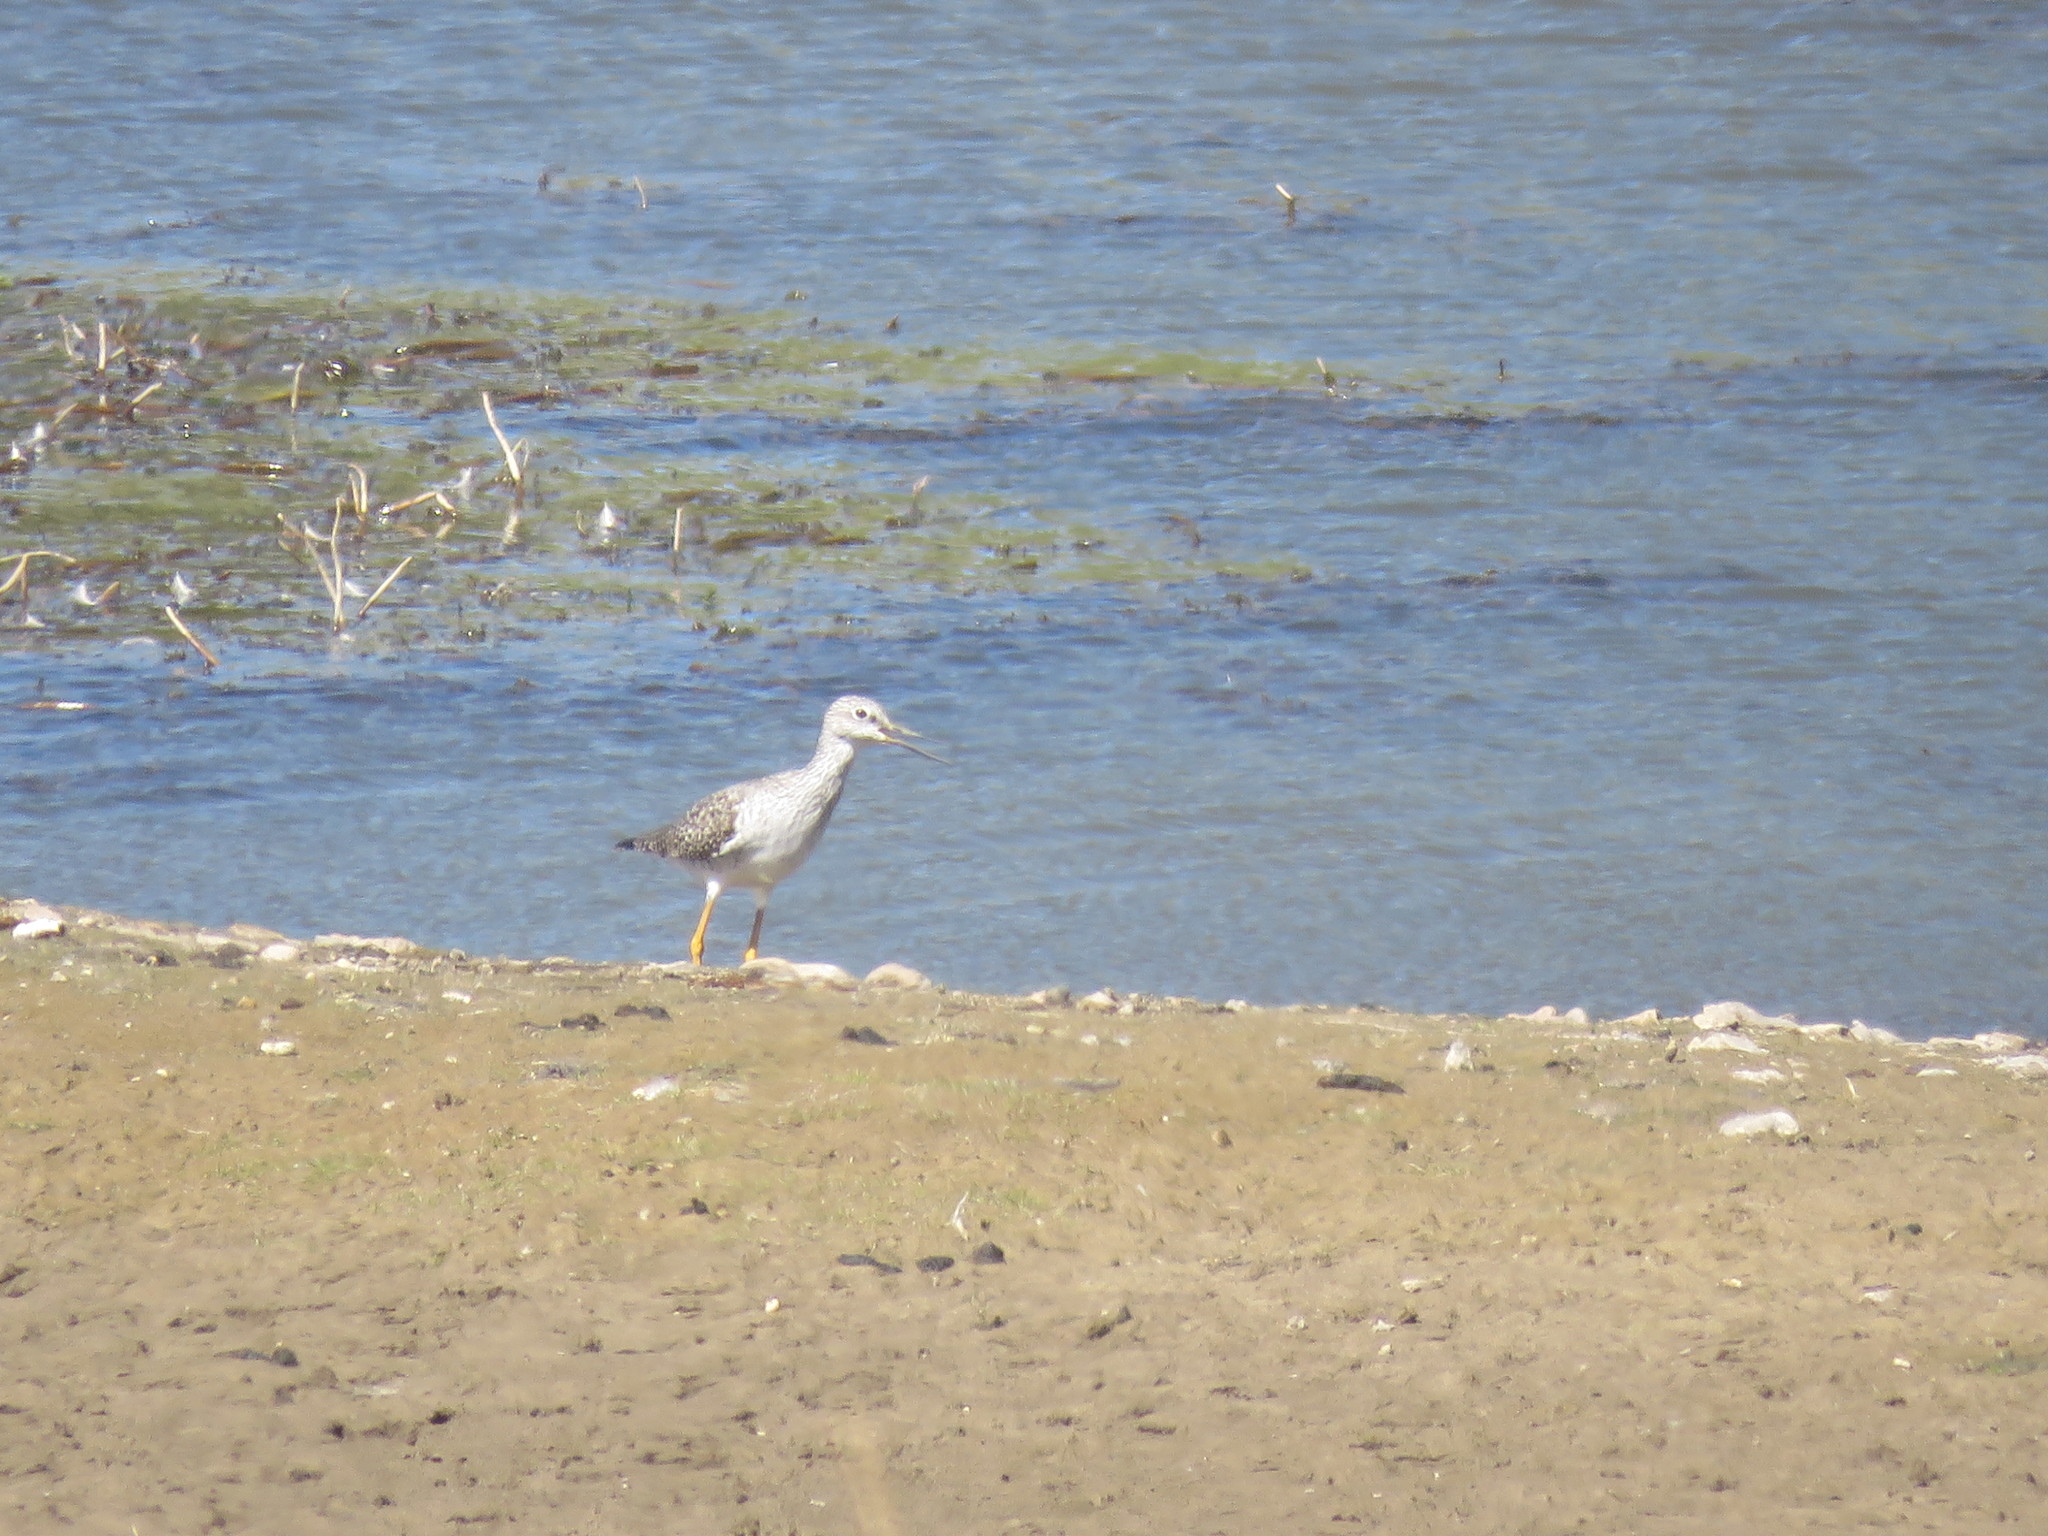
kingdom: Animalia
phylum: Chordata
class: Aves
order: Charadriiformes
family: Scolopacidae
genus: Tringa
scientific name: Tringa melanoleuca
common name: Greater yellowlegs
